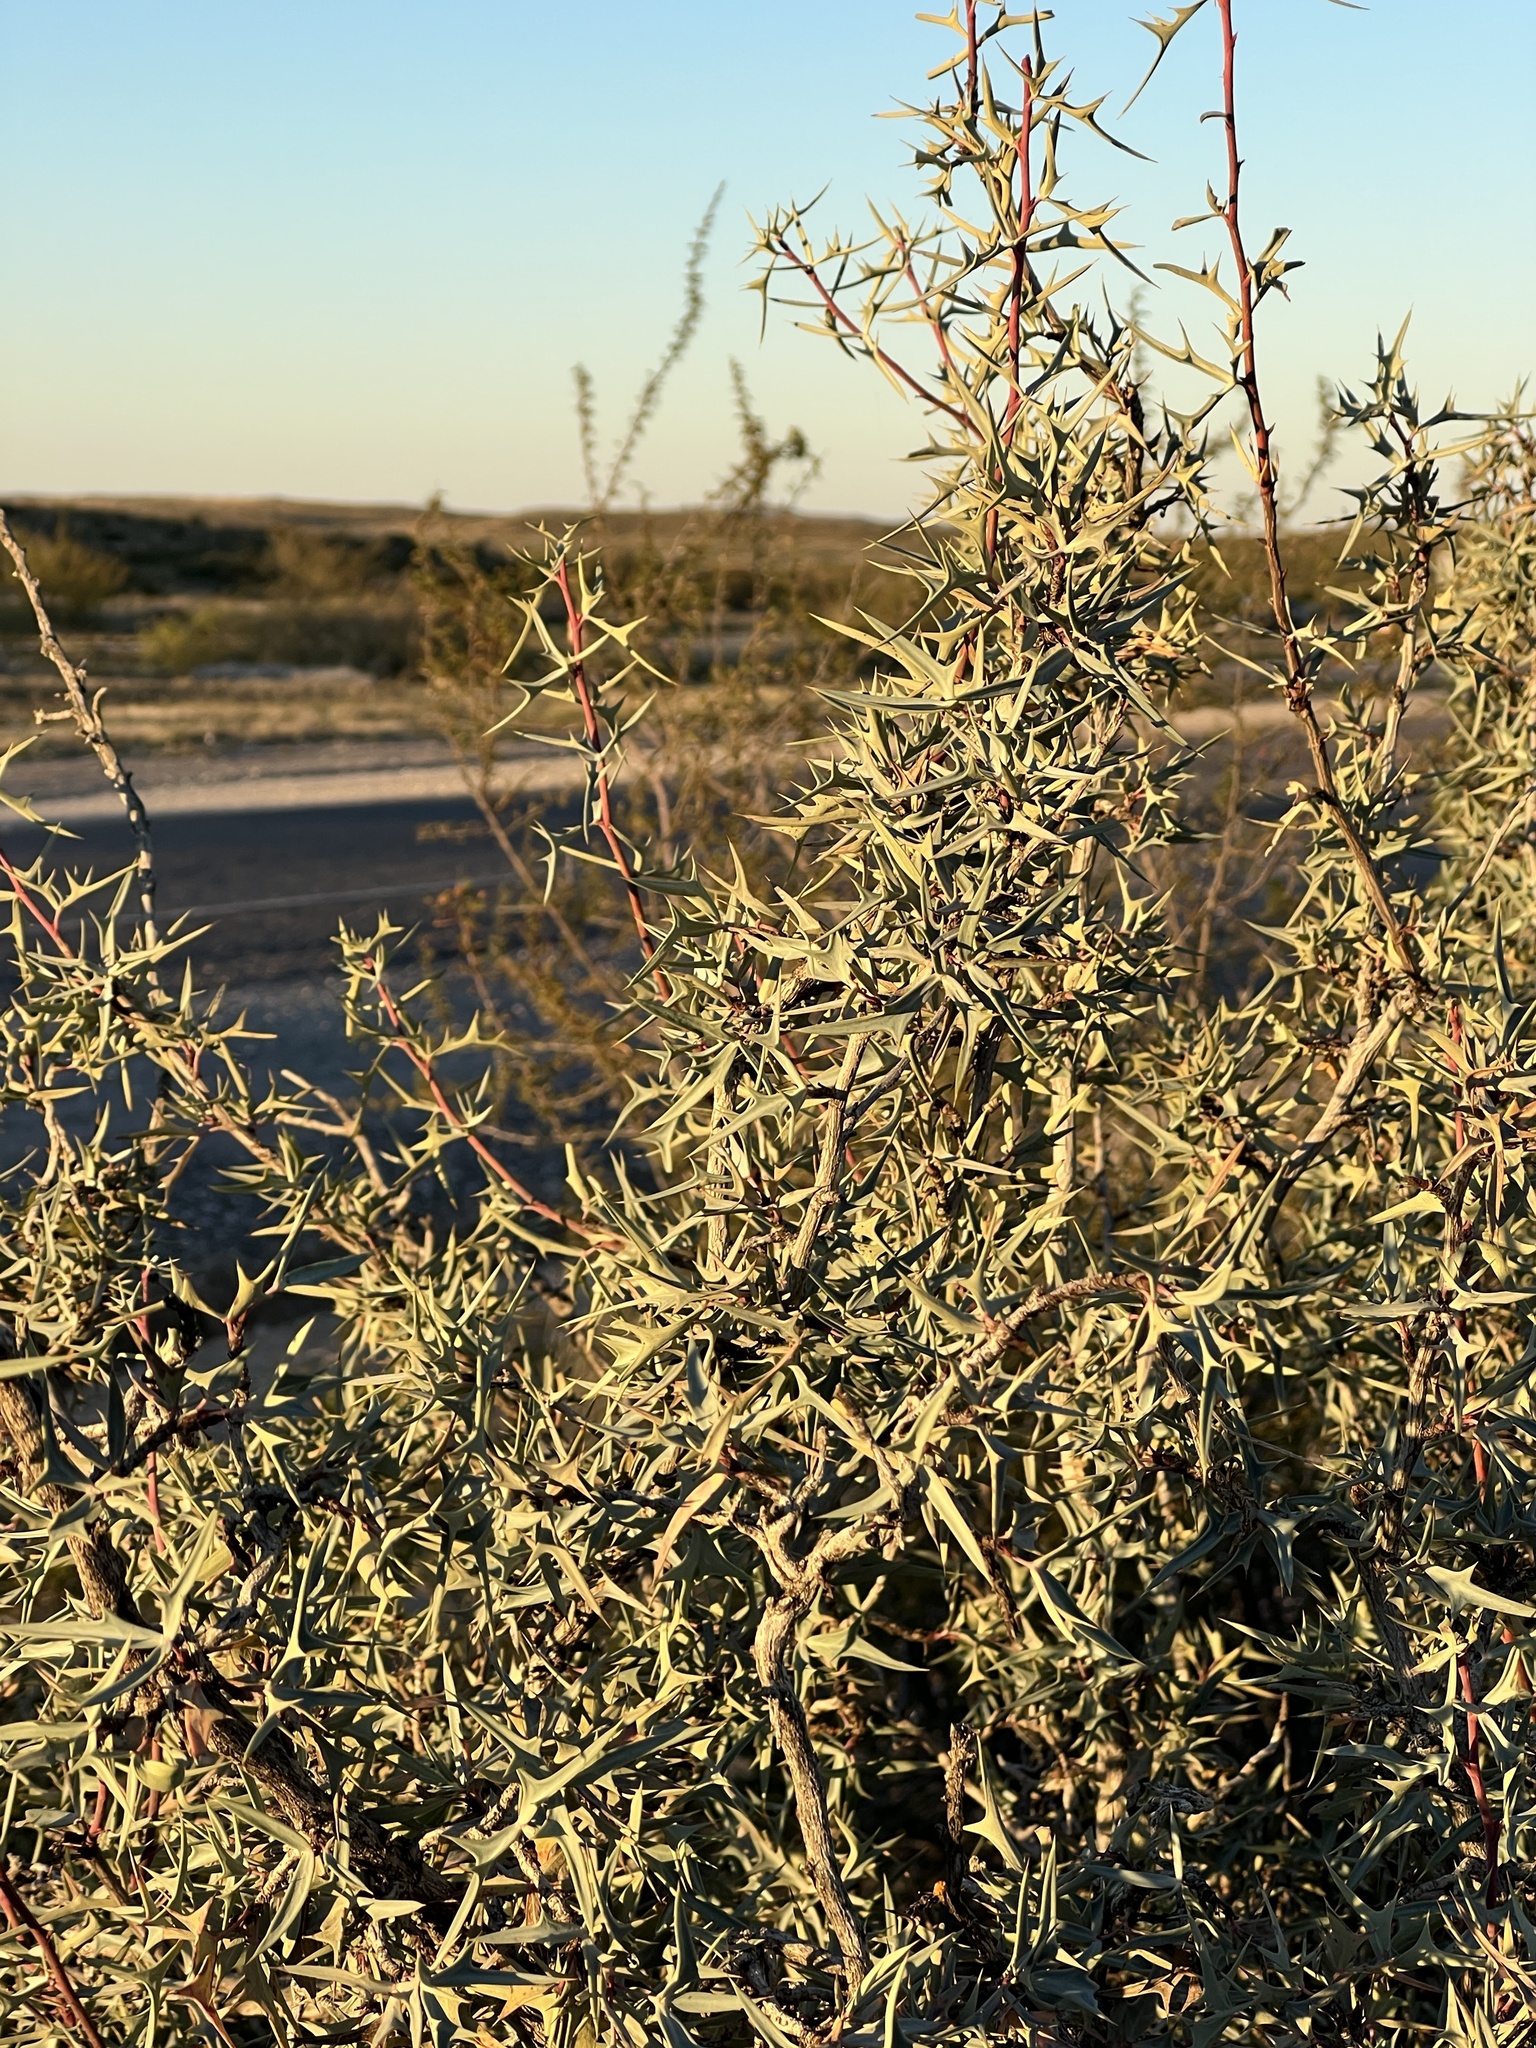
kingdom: Plantae
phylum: Tracheophyta
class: Magnoliopsida
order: Ranunculales
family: Berberidaceae
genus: Alloberberis
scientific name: Alloberberis trifoliolata
